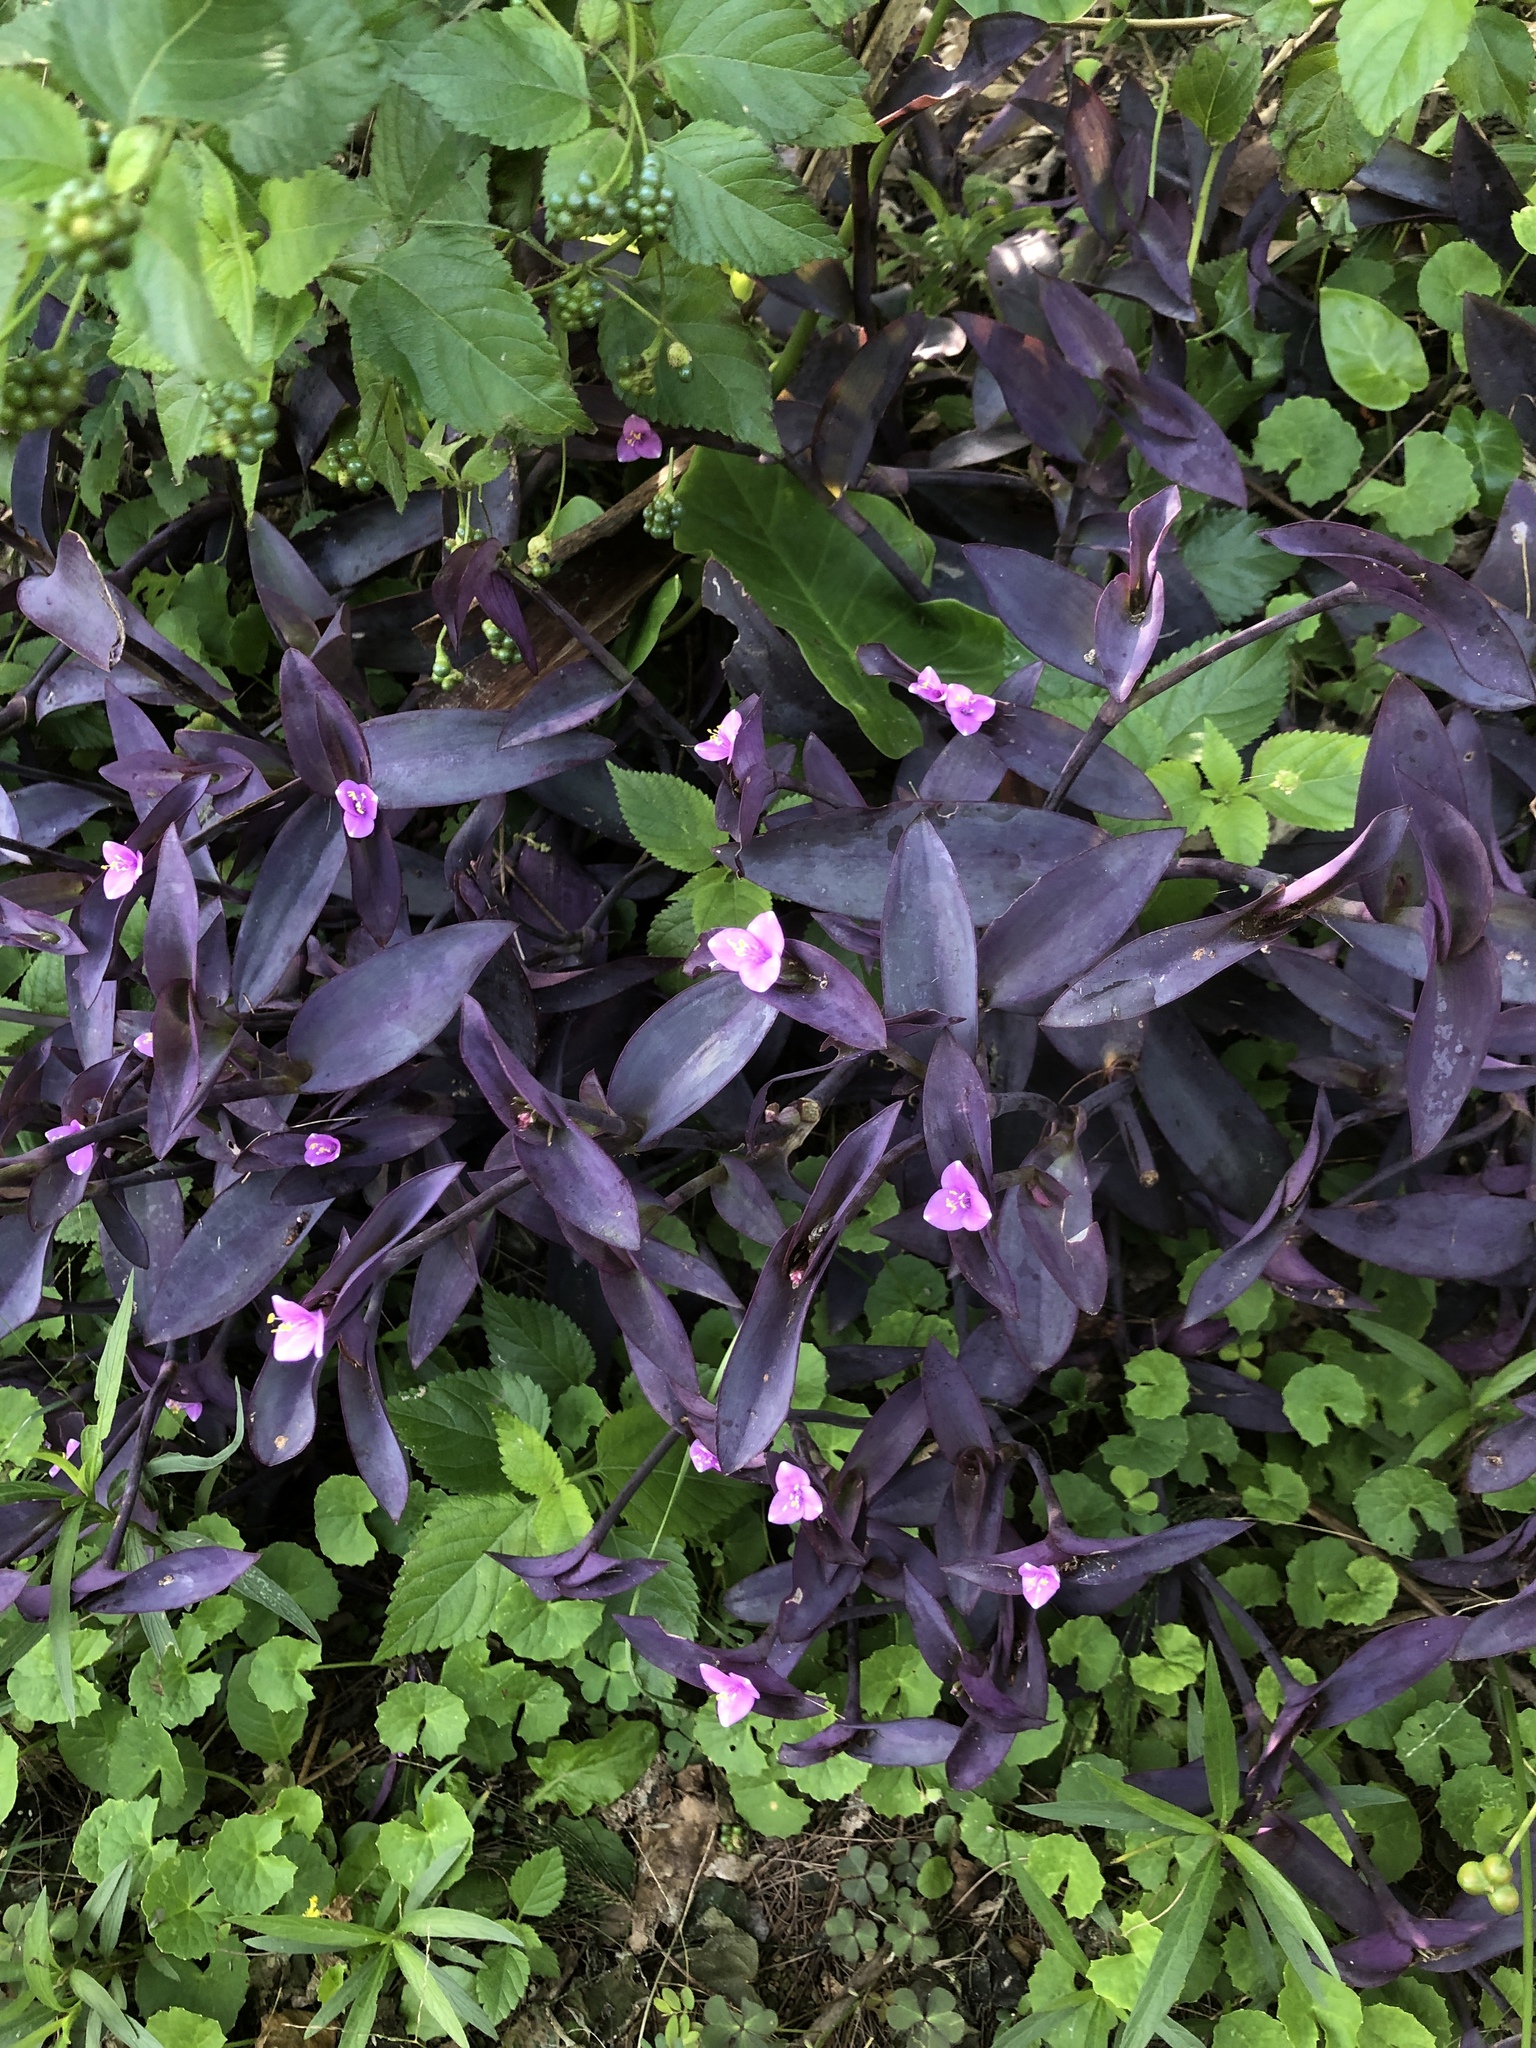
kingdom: Plantae
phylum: Tracheophyta
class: Liliopsida
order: Commelinales
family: Commelinaceae
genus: Tradescantia
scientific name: Tradescantia pallida
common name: Purpleheart
